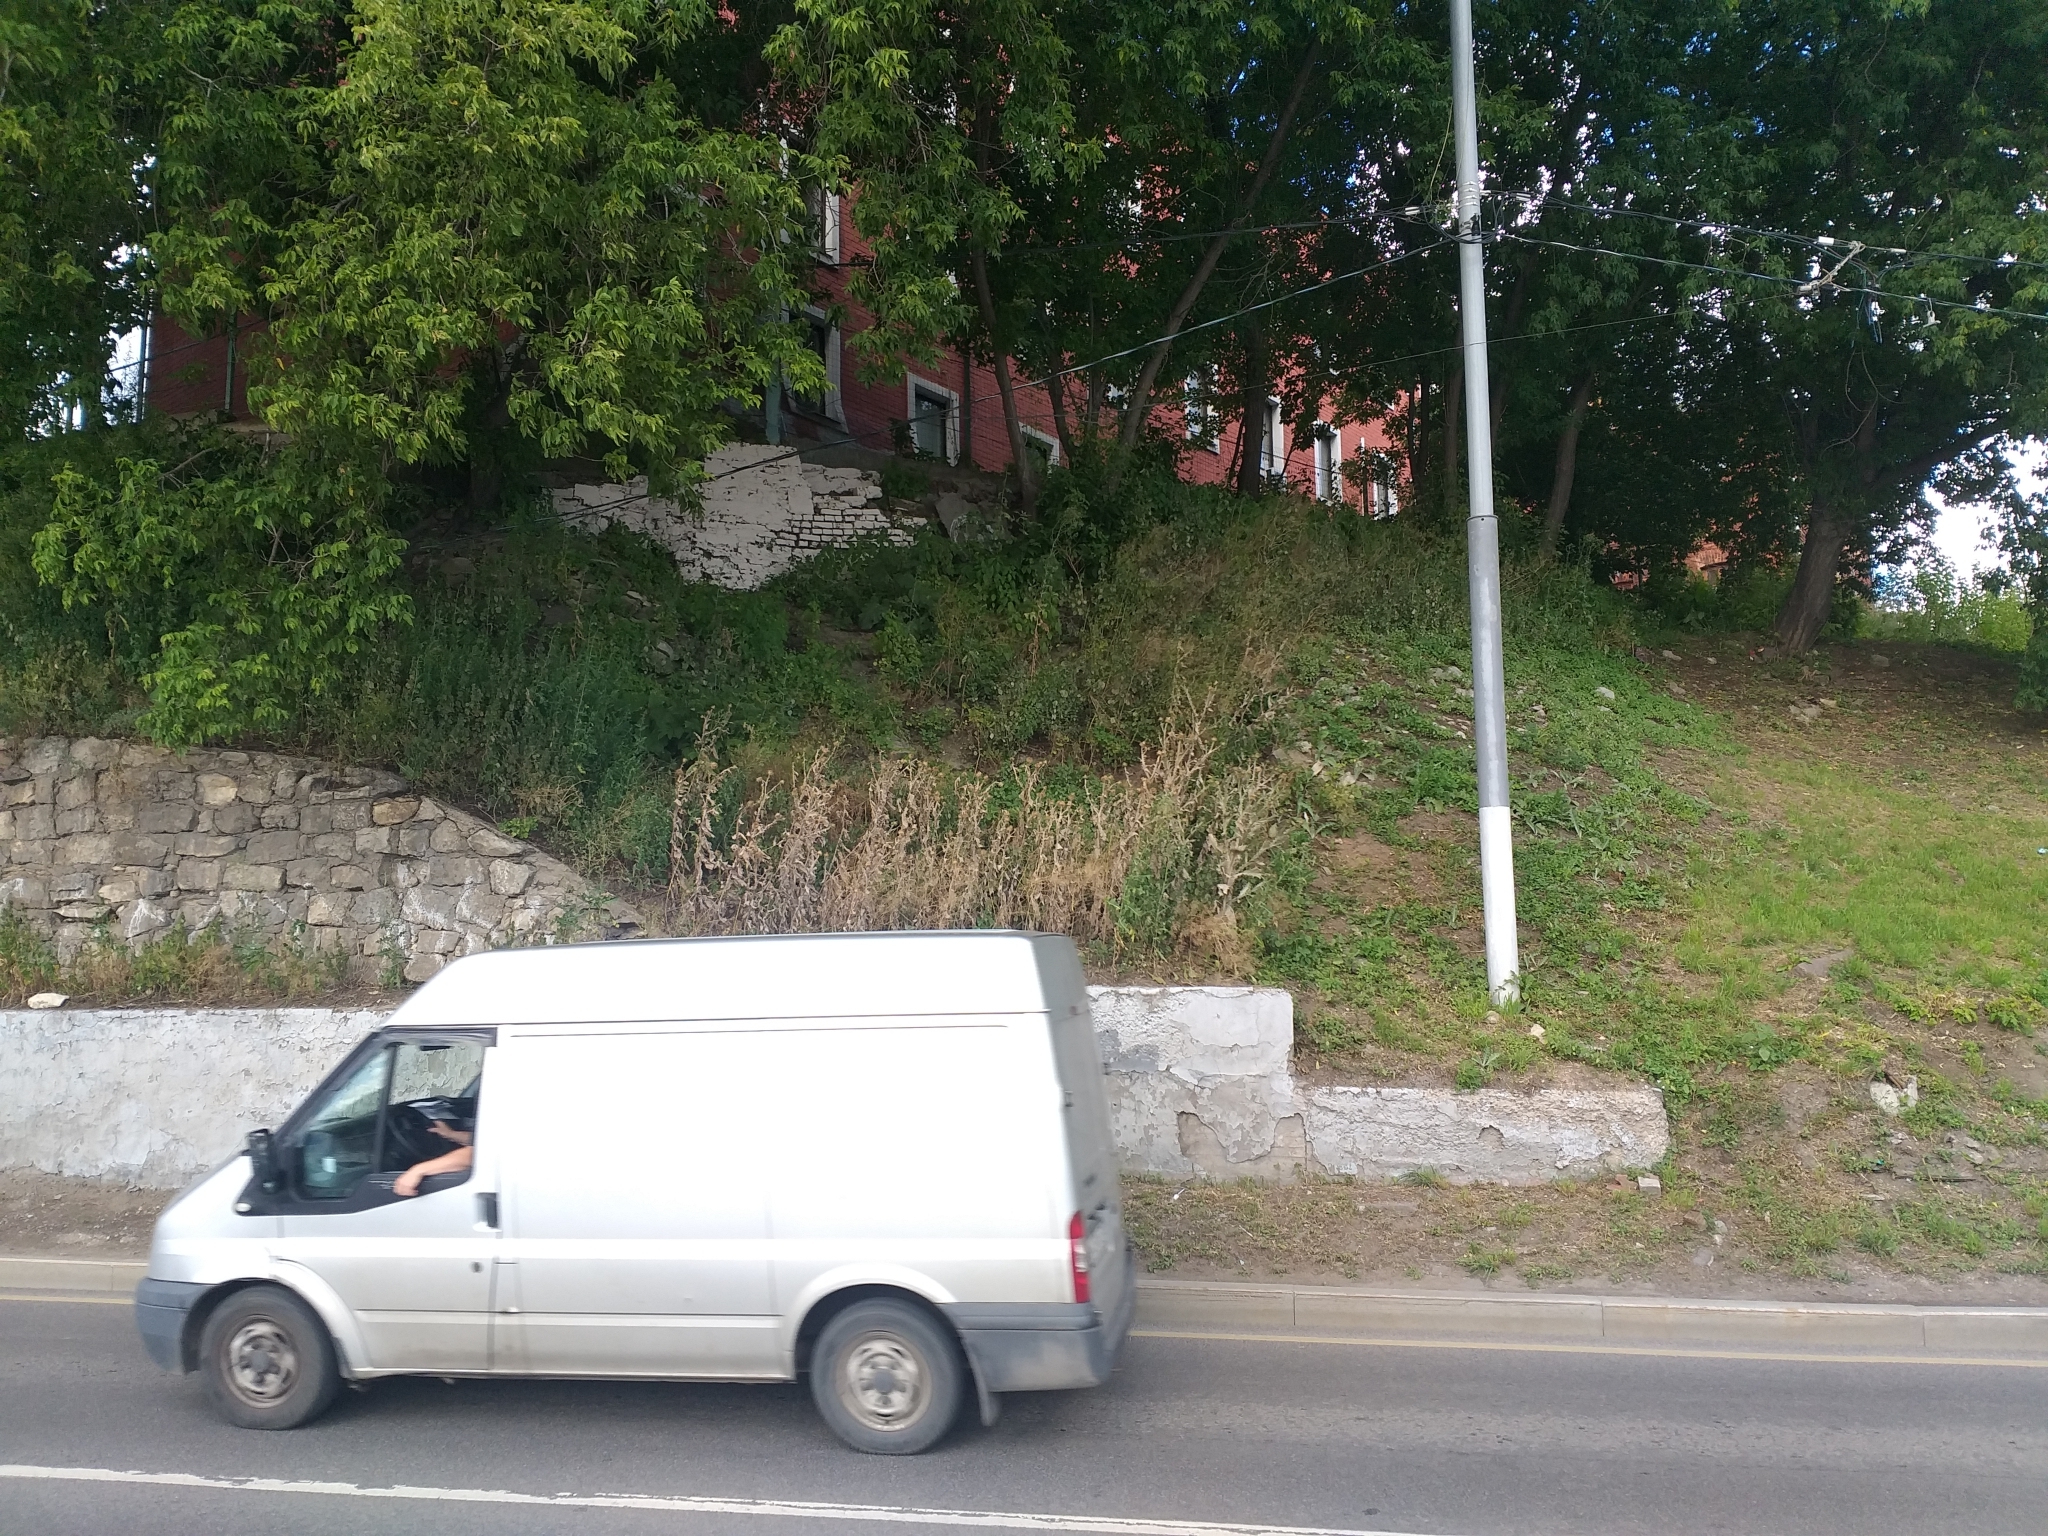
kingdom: Plantae
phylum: Tracheophyta
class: Magnoliopsida
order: Asterales
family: Asteraceae
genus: Onopordum
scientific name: Onopordum acanthium
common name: Scotch thistle
